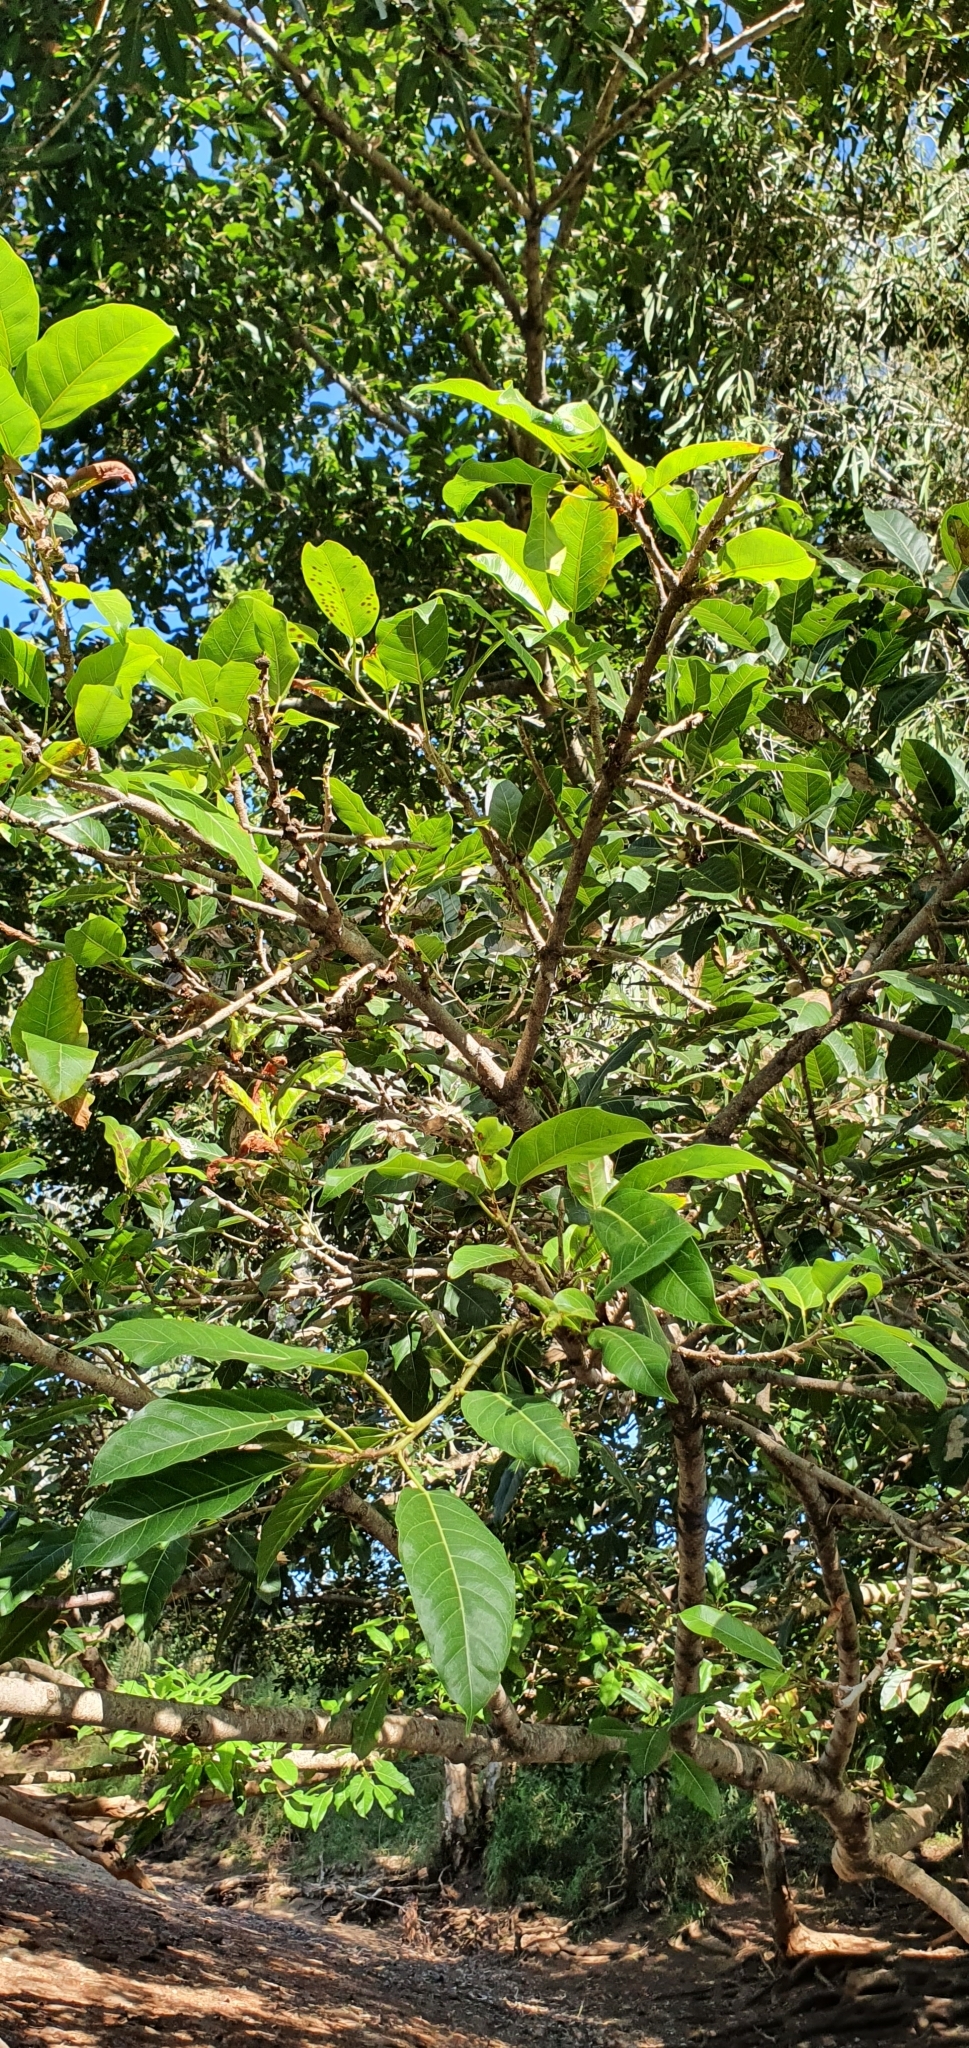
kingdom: Plantae
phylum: Tracheophyta
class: Magnoliopsida
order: Rosales
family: Moraceae
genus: Ficus
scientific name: Ficus virens
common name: Spotted fig
